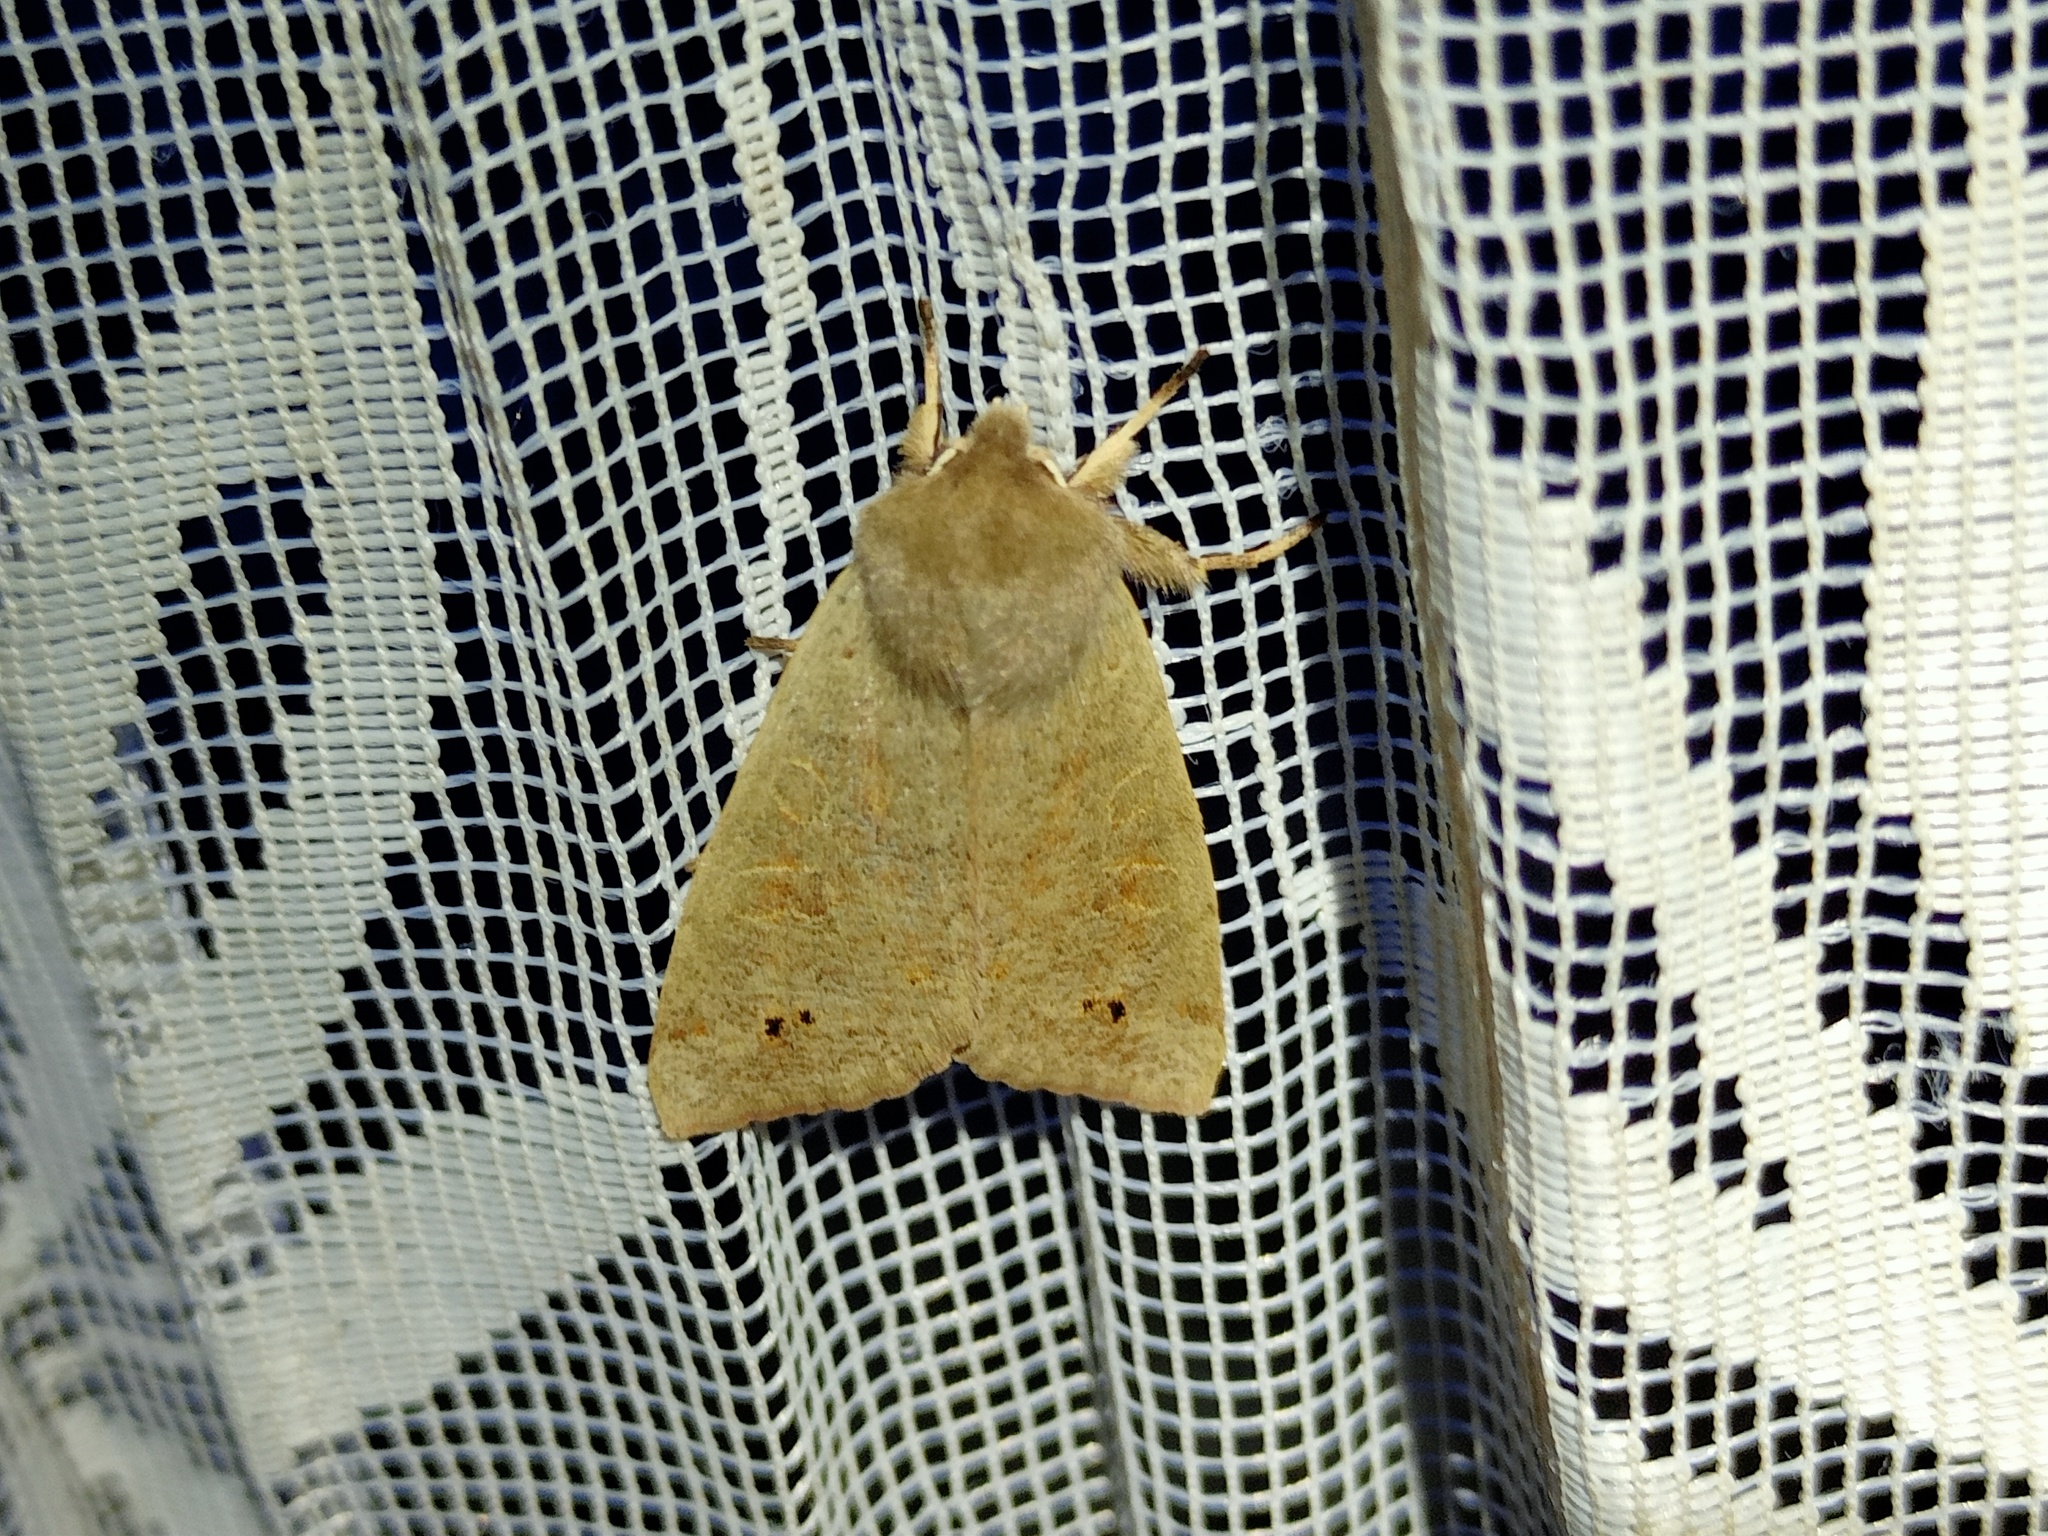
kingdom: Animalia
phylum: Arthropoda
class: Insecta
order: Lepidoptera
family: Noctuidae
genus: Anorthoa
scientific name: Anorthoa munda
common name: Twin-spotted quaker
